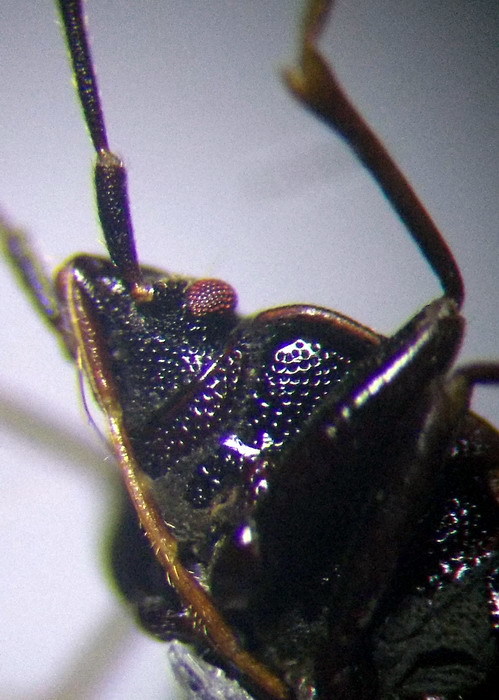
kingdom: Animalia
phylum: Arthropoda
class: Insecta
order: Hemiptera
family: Rhyparochromidae
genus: Drymus
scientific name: Drymus brunneus
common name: Seed bug
